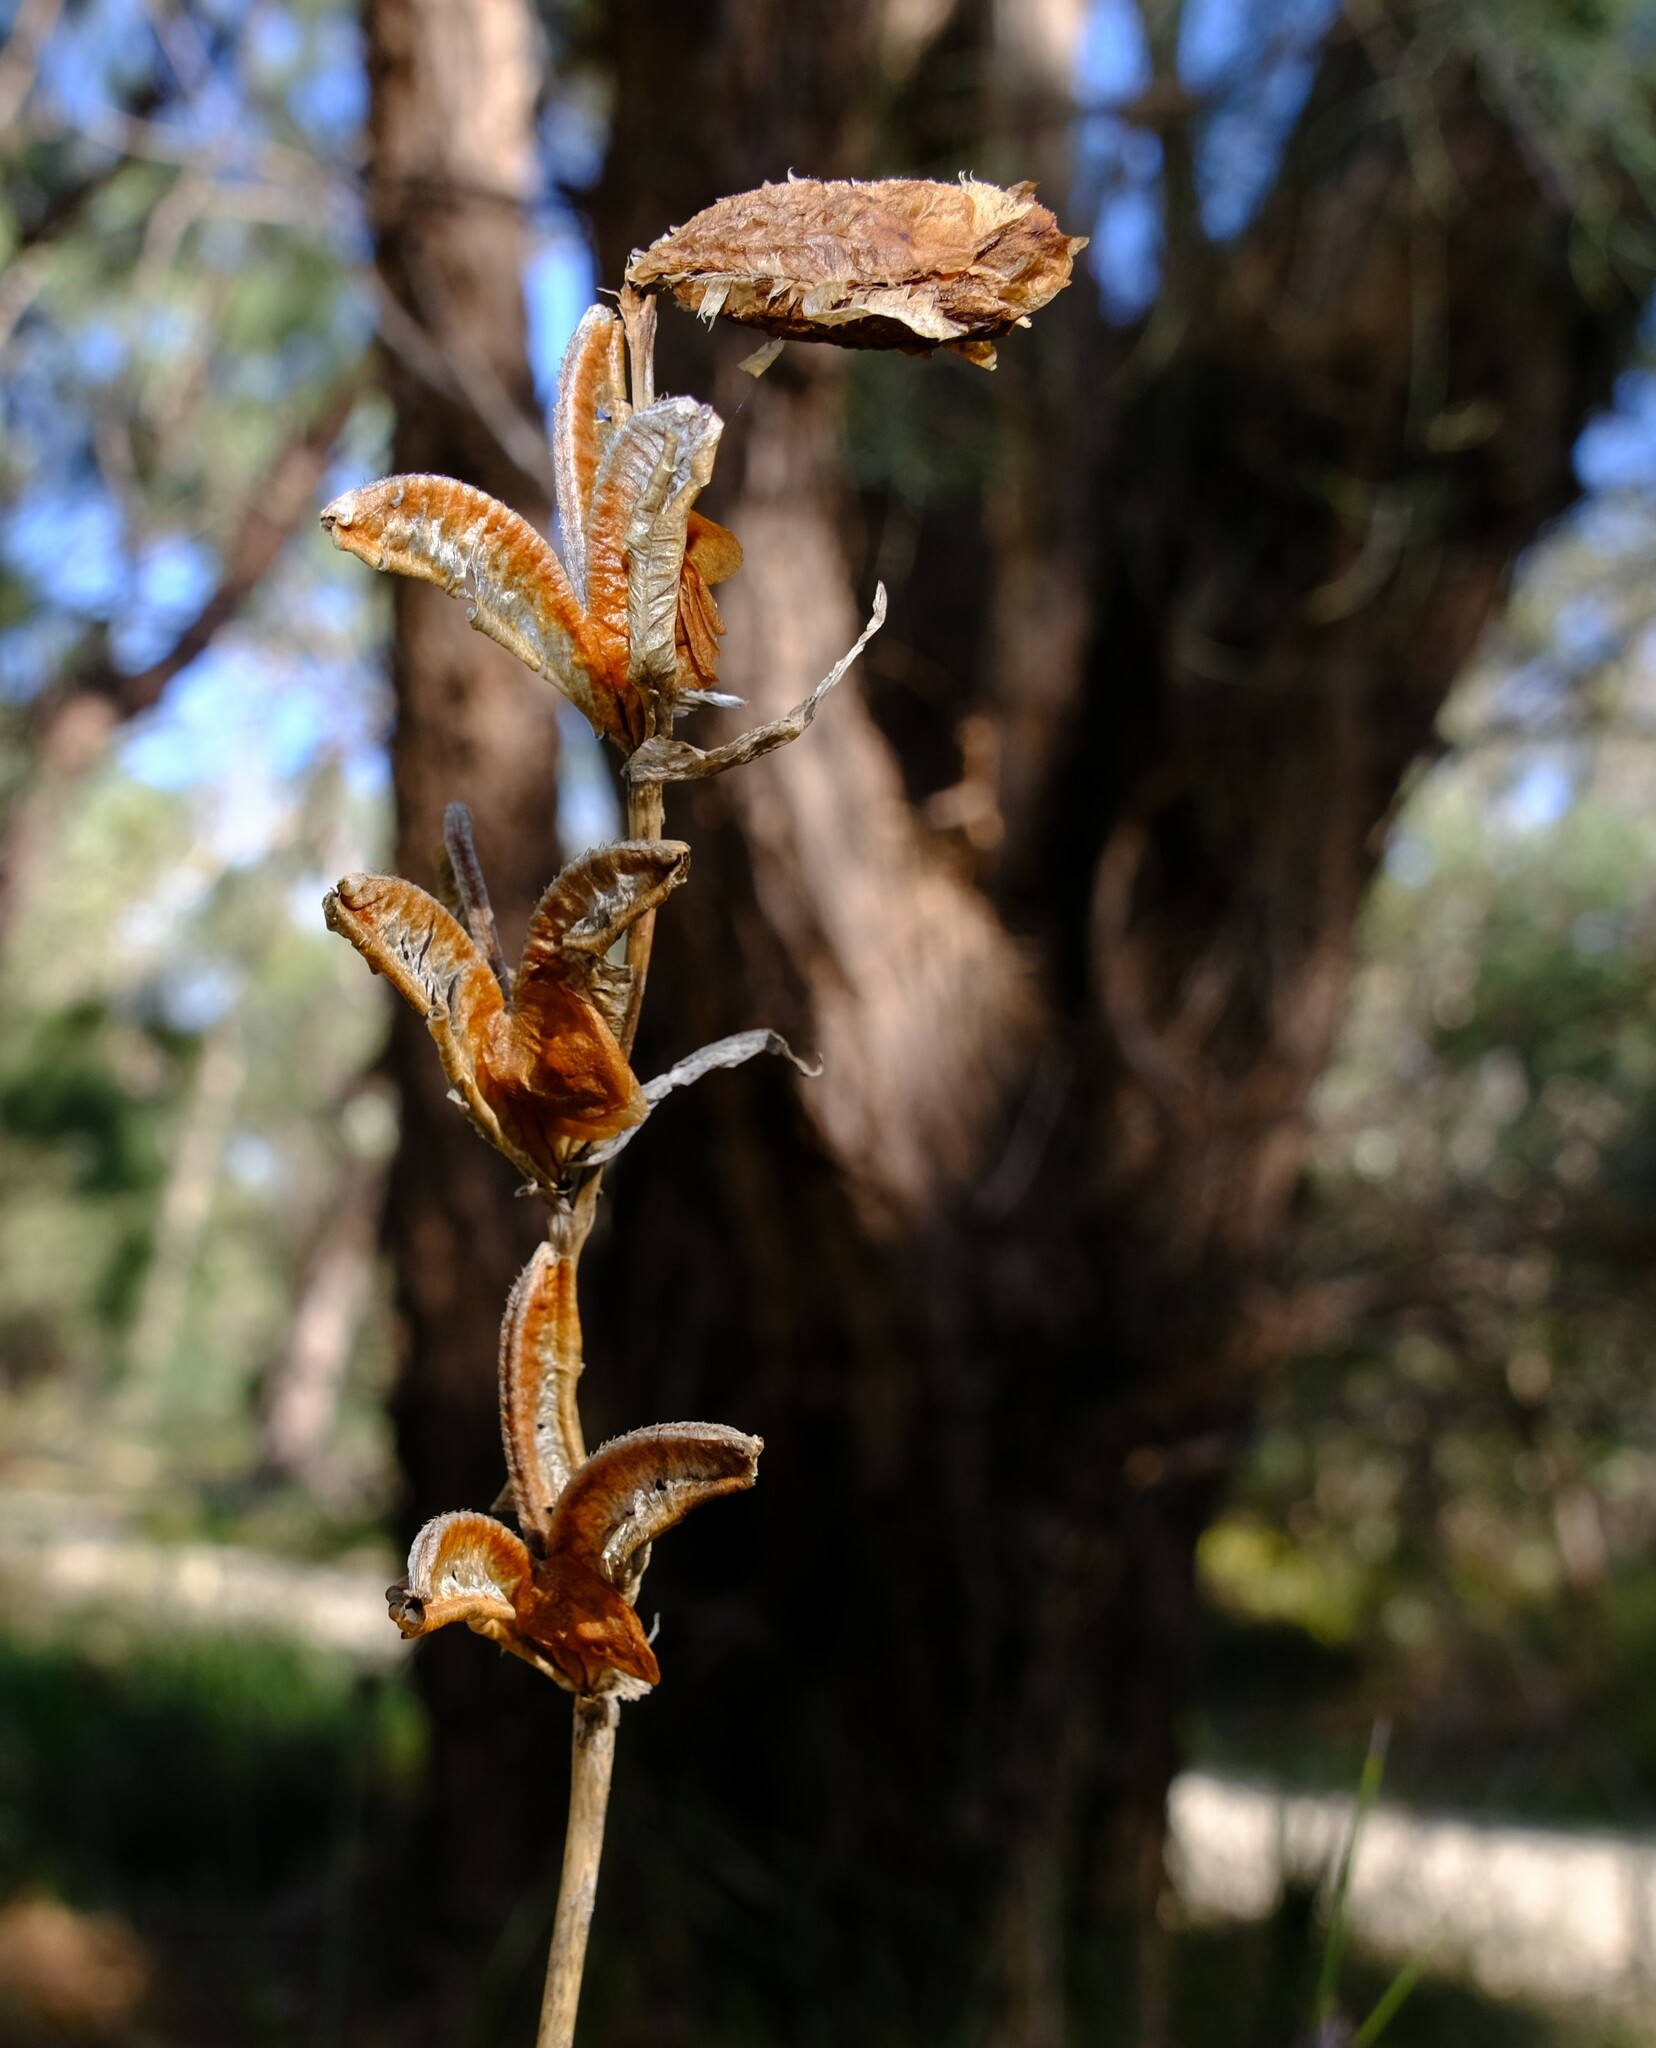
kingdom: Plantae
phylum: Tracheophyta
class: Liliopsida
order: Asparagales
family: Iridaceae
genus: Gladiolus
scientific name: Gladiolus caryophyllaceus
